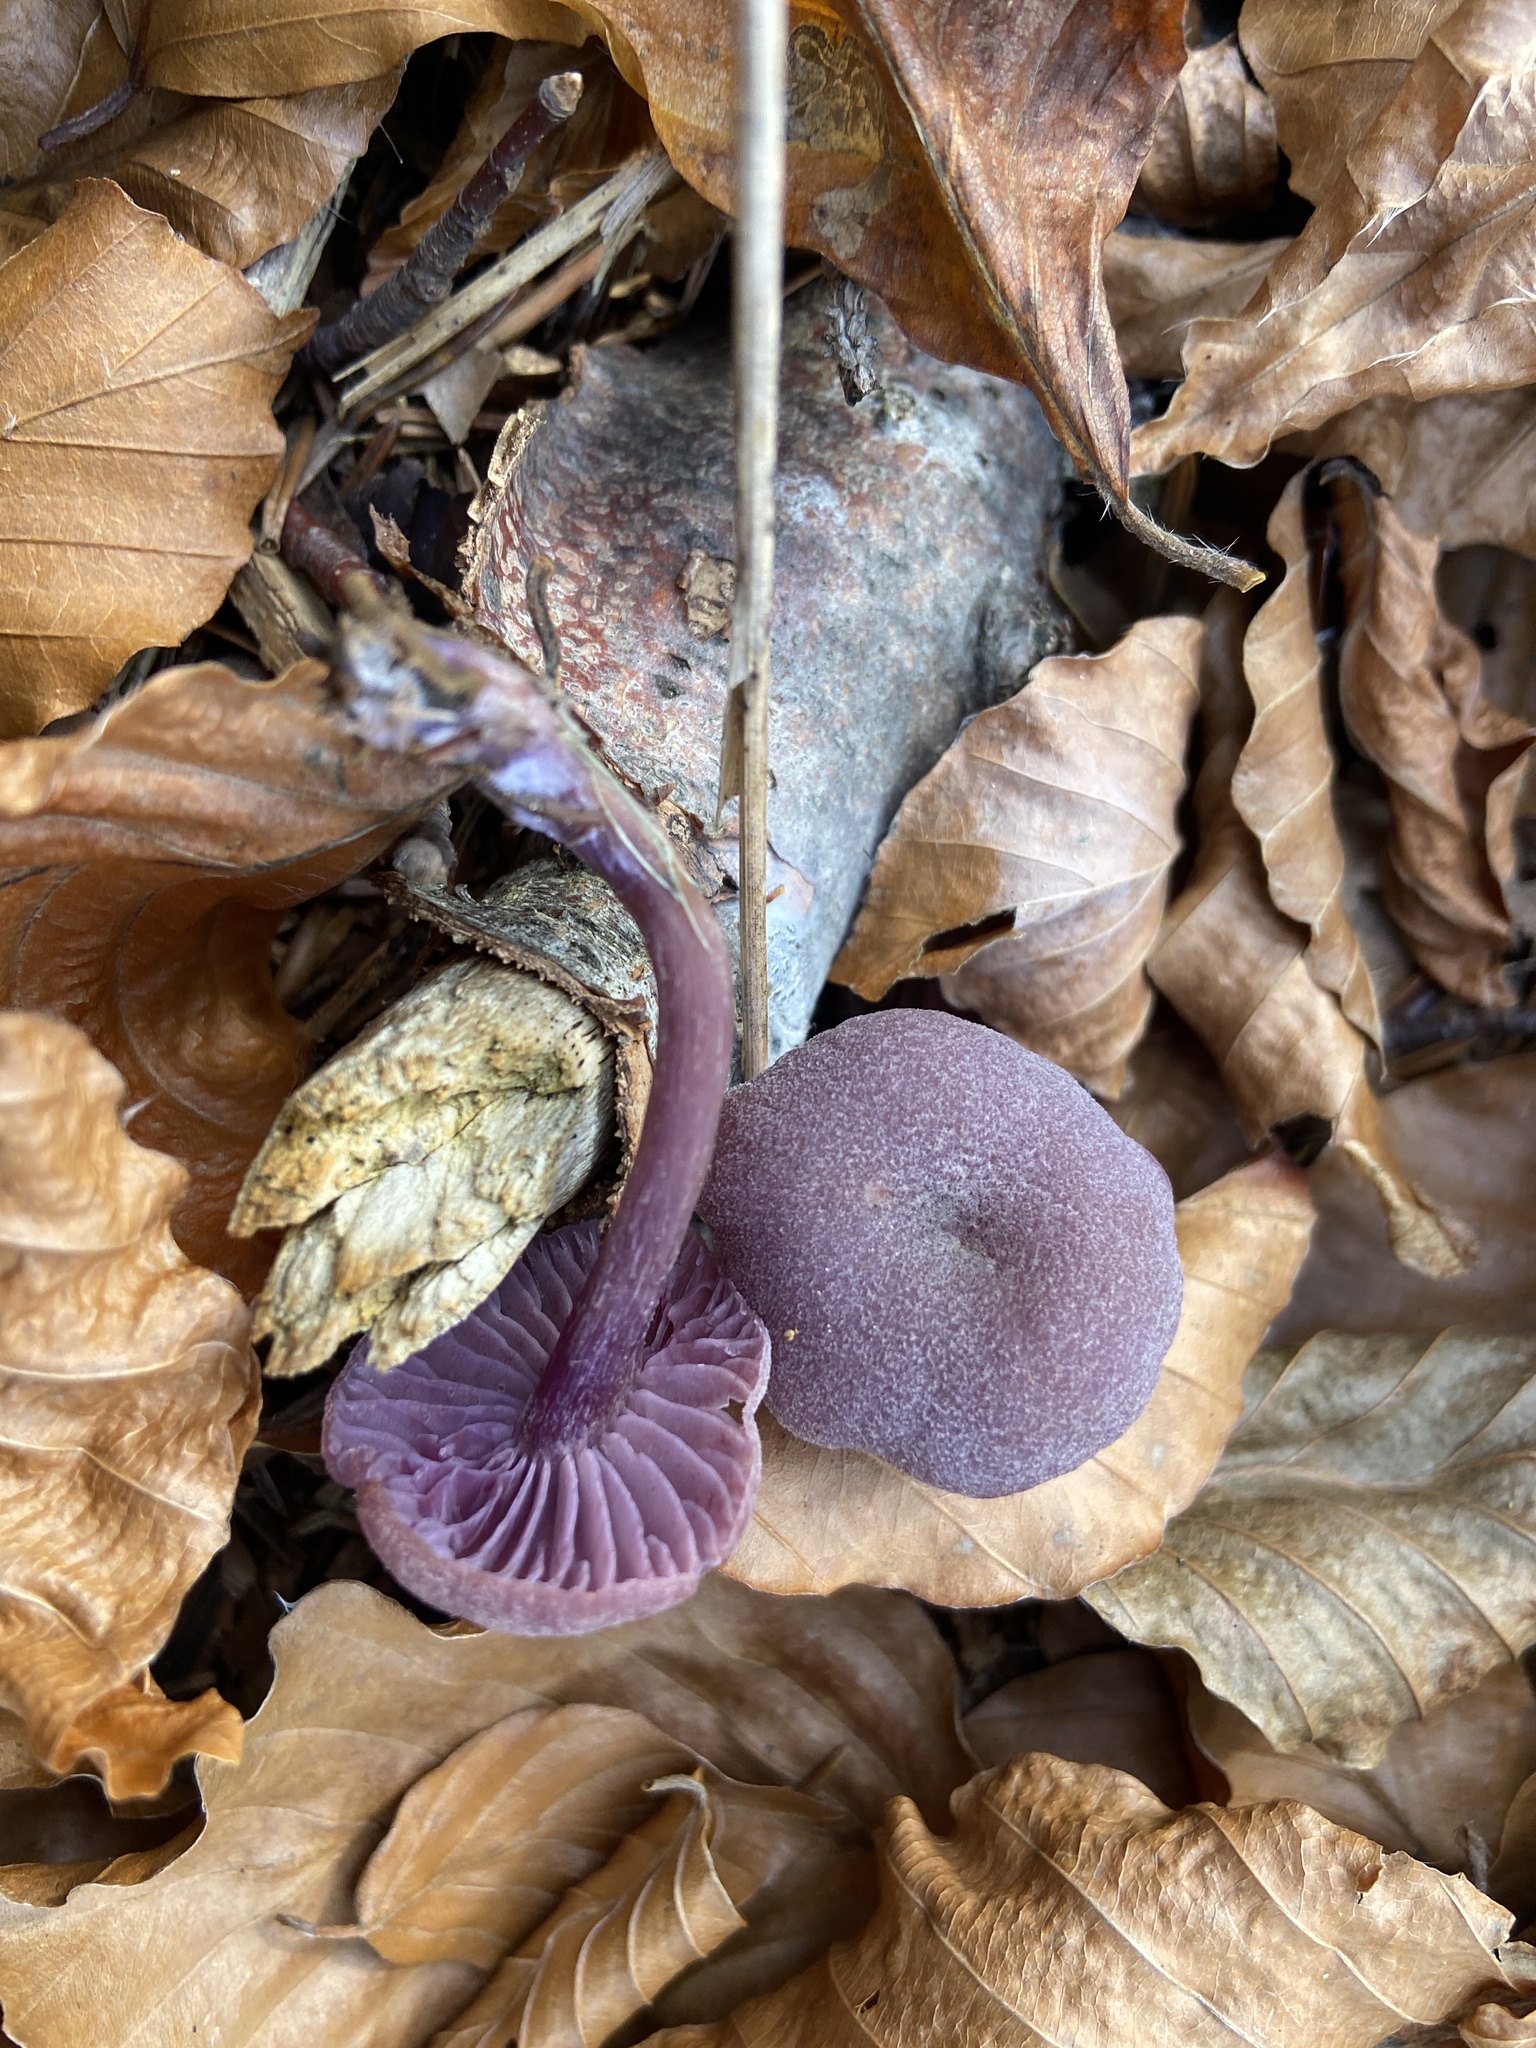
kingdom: Fungi
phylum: Basidiomycota
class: Agaricomycetes
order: Agaricales
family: Hydnangiaceae
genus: Laccaria
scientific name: Laccaria amethystina
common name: Amethyst deceiver
